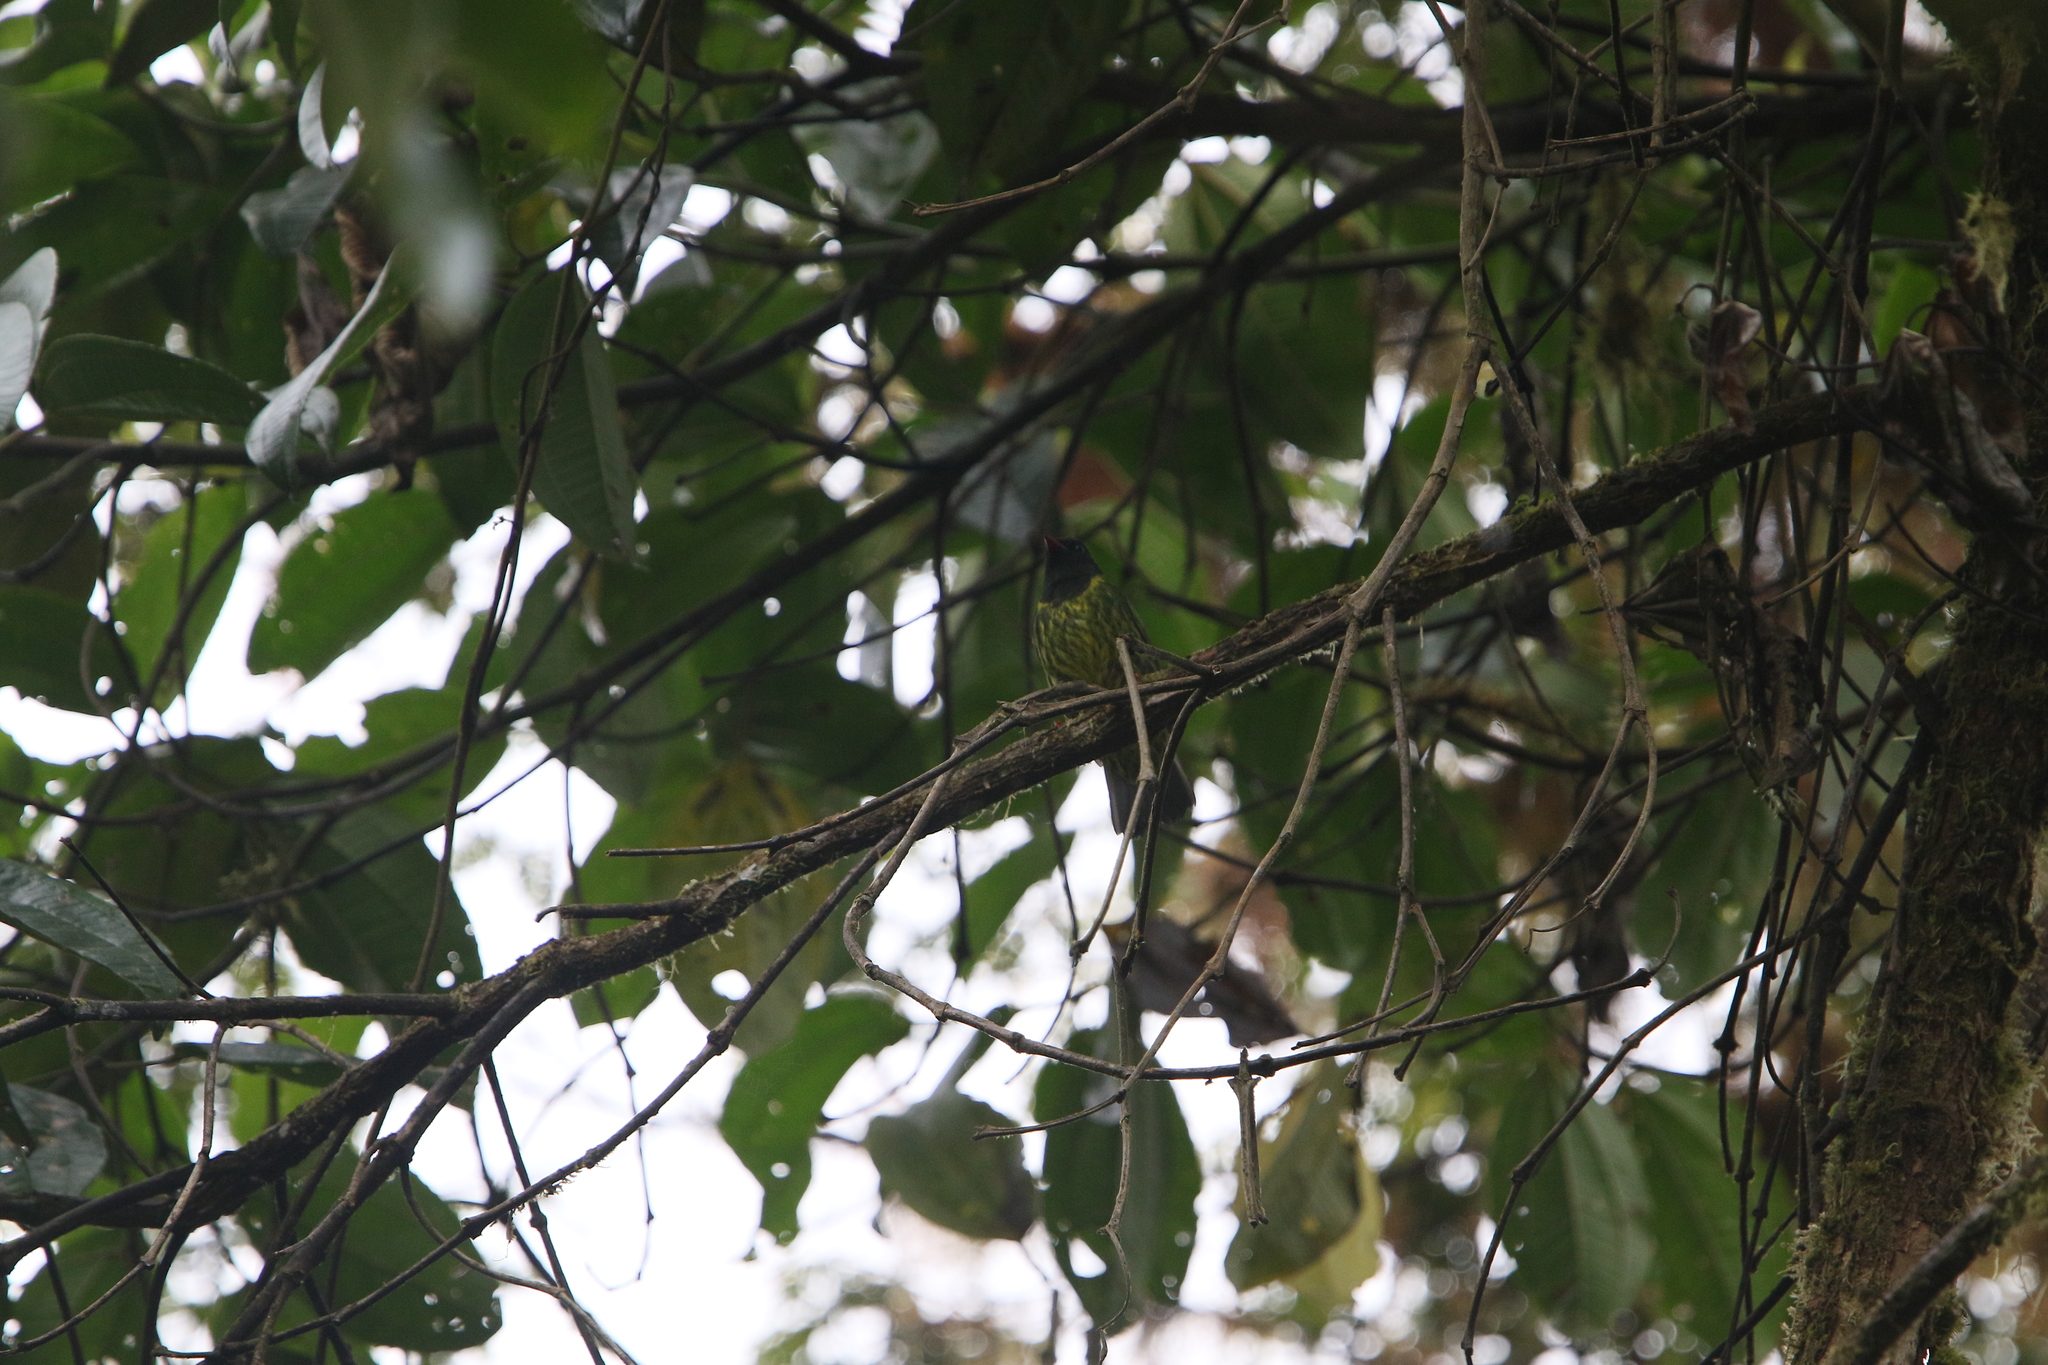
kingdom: Animalia
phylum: Chordata
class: Aves
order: Passeriformes
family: Cotingidae
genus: Pipreola
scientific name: Pipreola riefferii
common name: Green-and-black fruiteater
